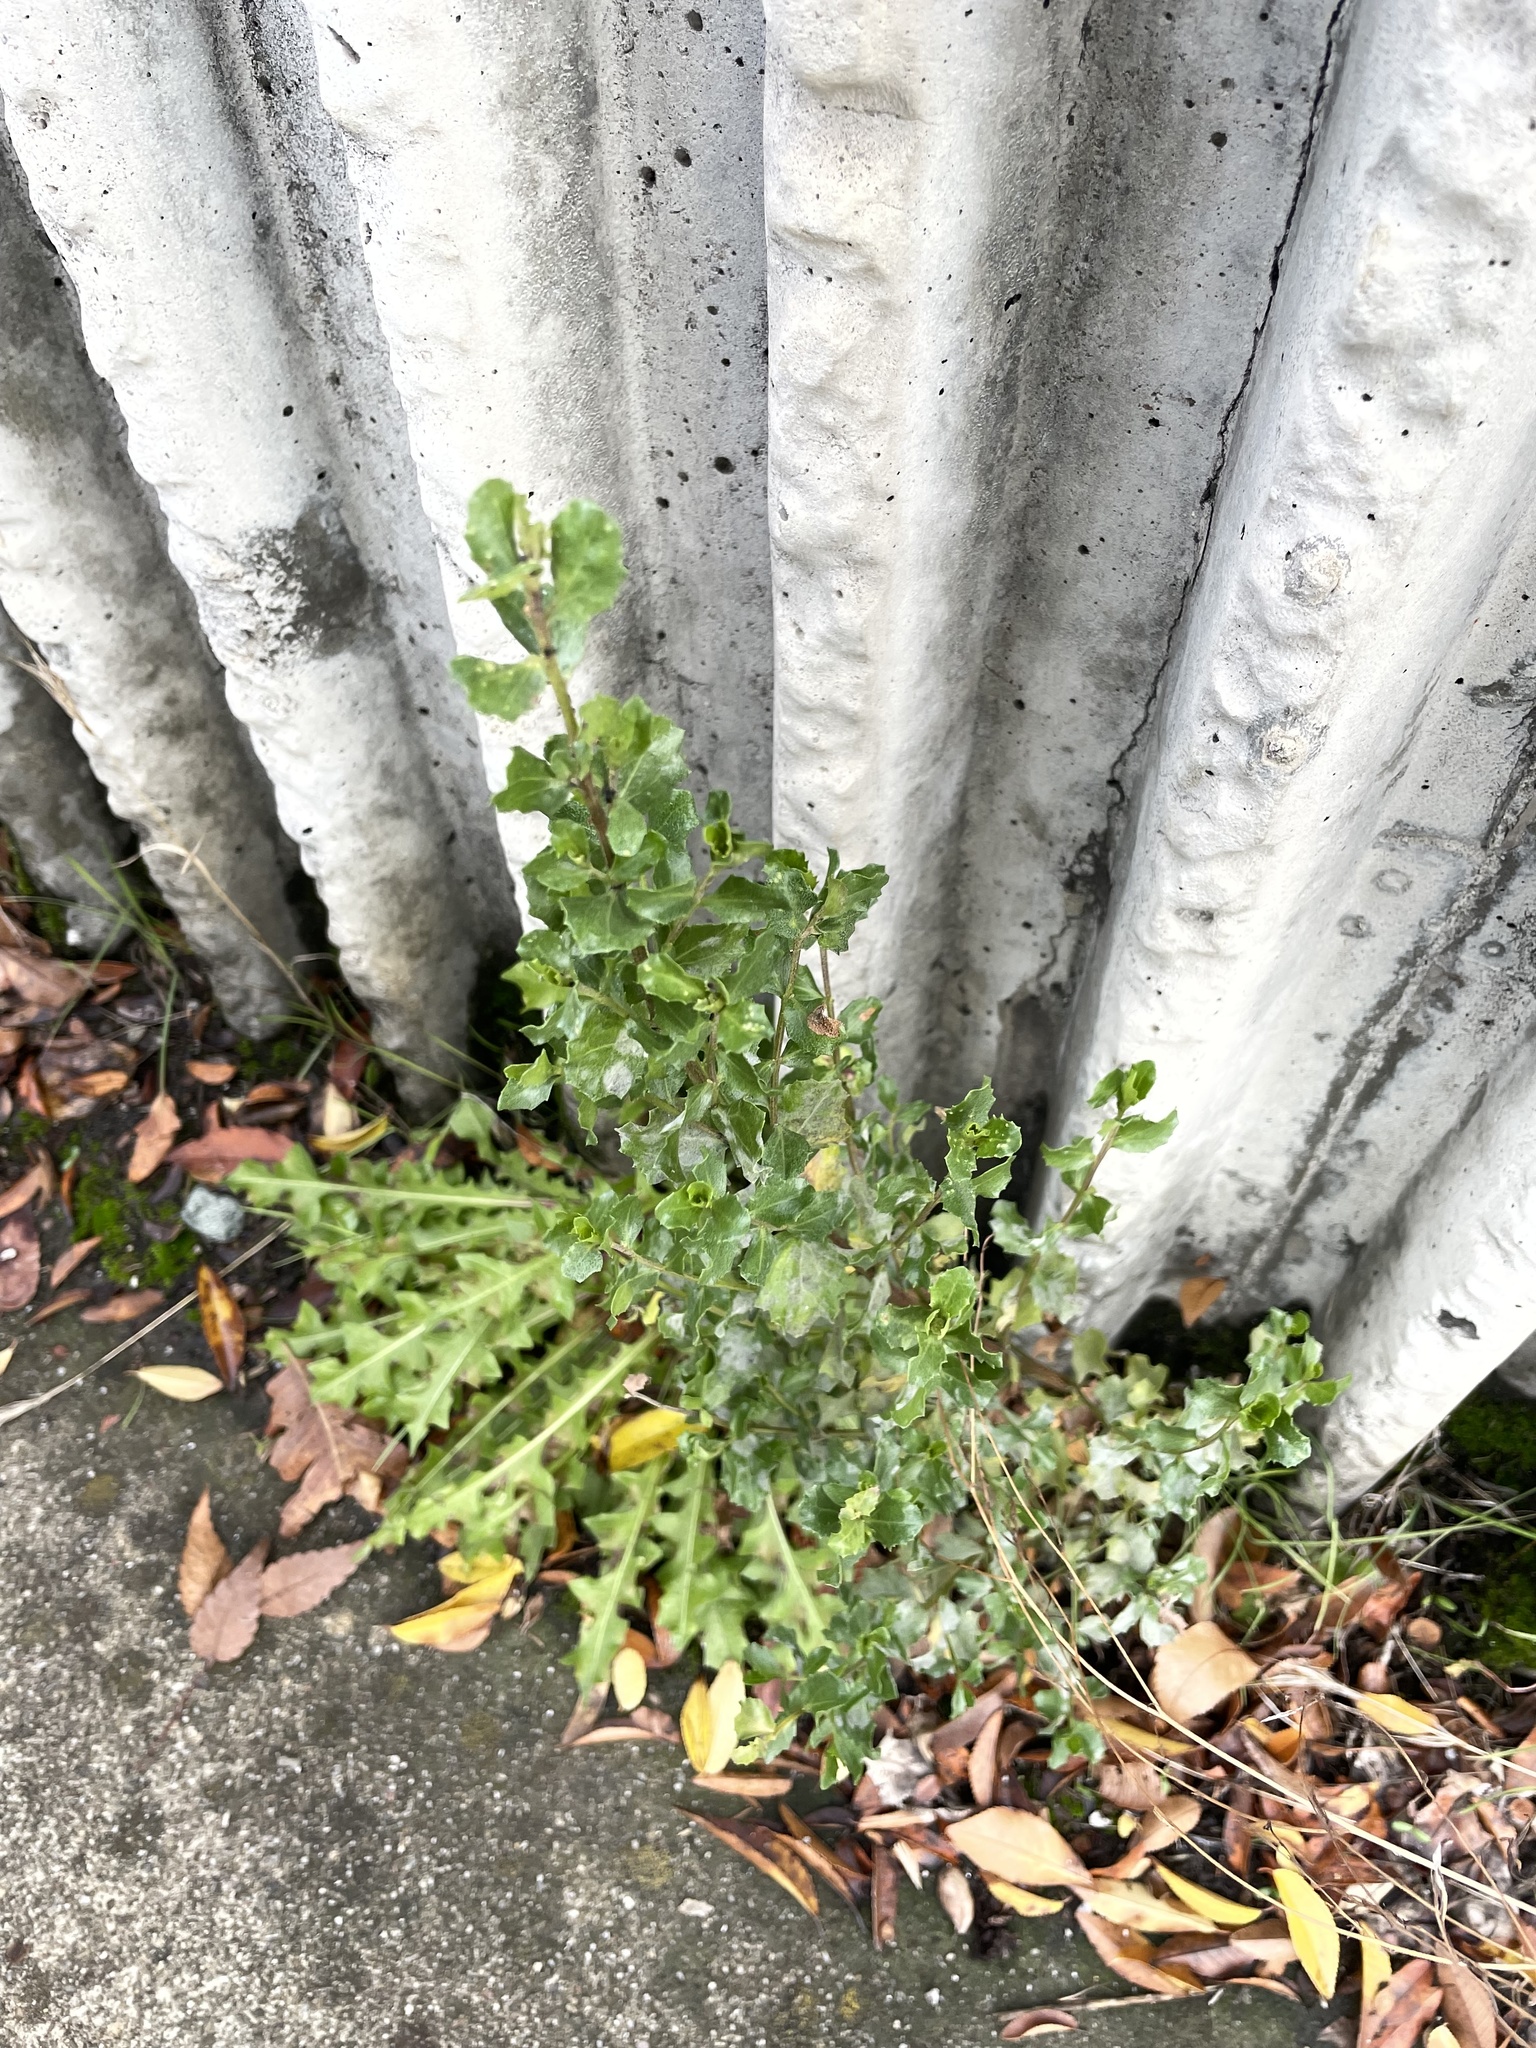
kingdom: Plantae
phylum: Tracheophyta
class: Magnoliopsida
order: Asterales
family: Asteraceae
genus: Baccharis
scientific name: Baccharis pilularis
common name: Coyotebrush
